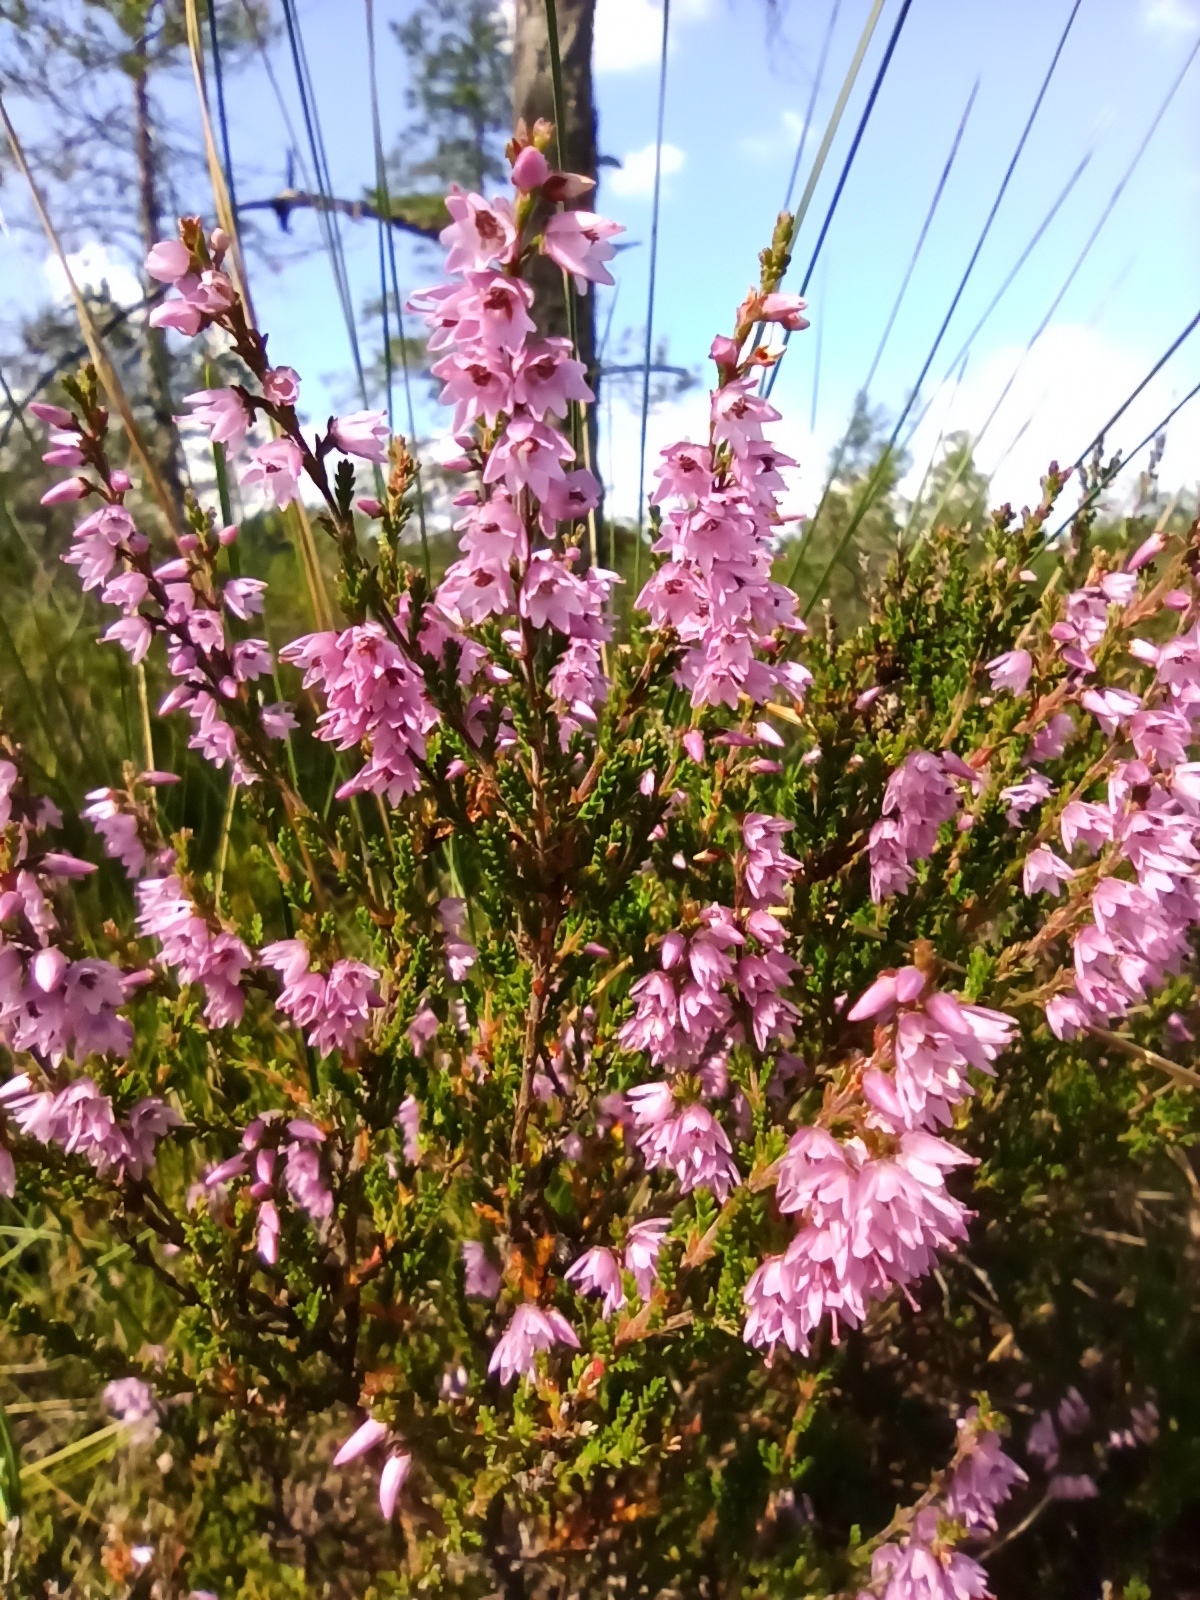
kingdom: Plantae
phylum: Tracheophyta
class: Magnoliopsida
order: Ericales
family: Ericaceae
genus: Calluna
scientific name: Calluna vulgaris
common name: Heather
